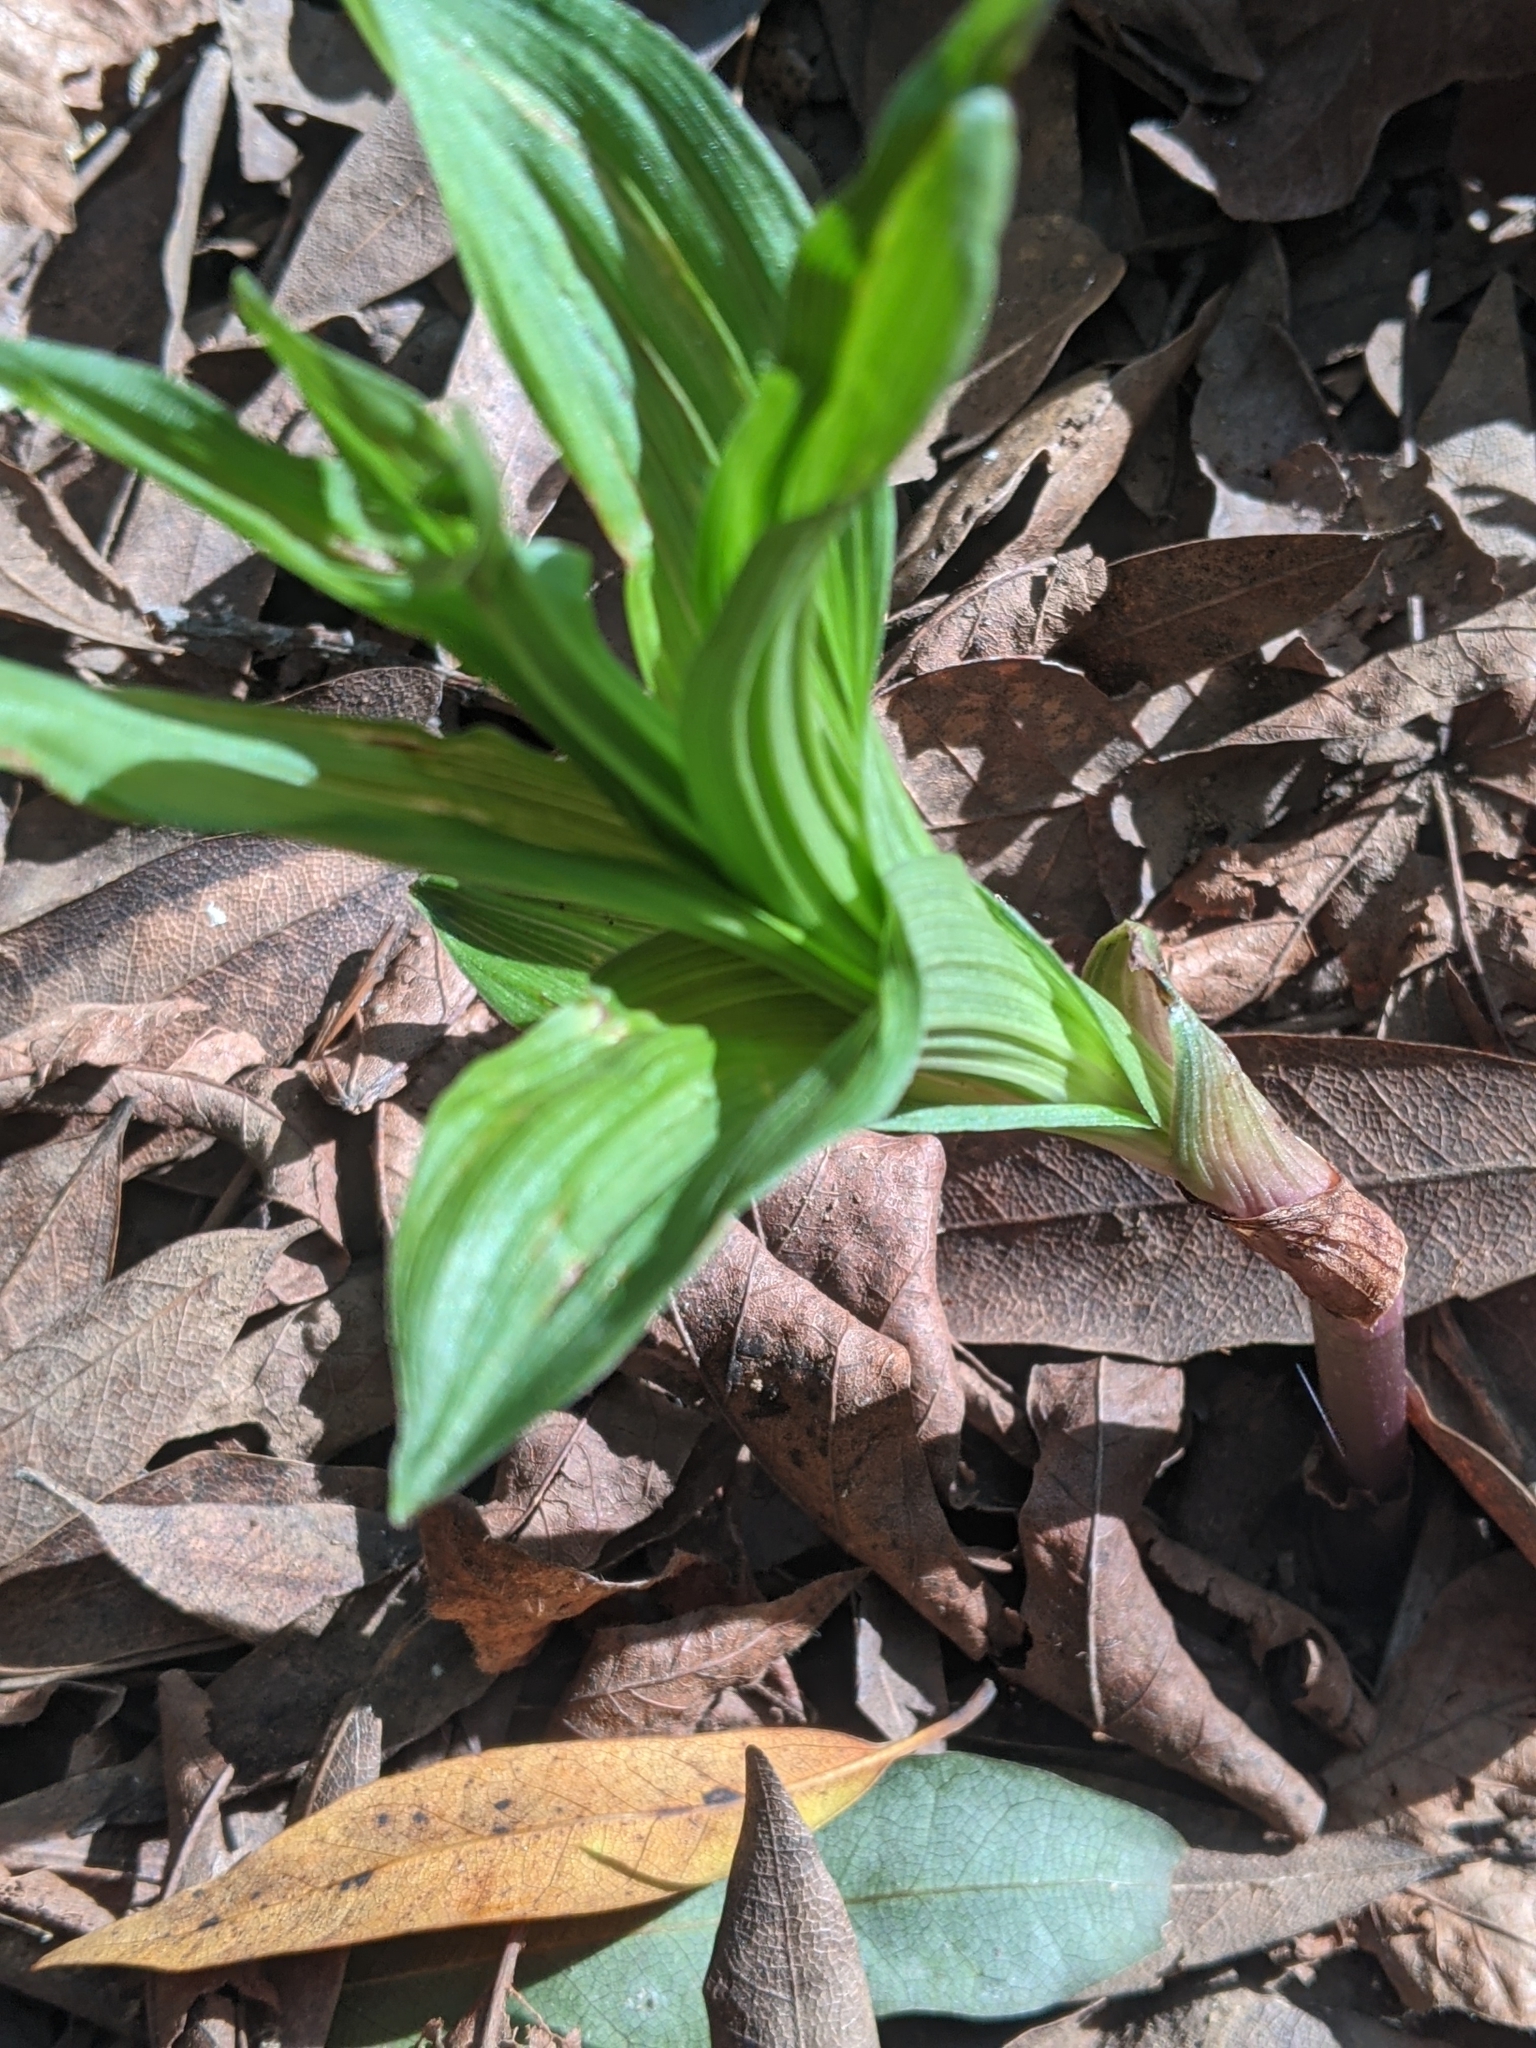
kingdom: Plantae
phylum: Tracheophyta
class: Liliopsida
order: Asparagales
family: Orchidaceae
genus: Epipactis
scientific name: Epipactis helleborine
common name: Broad-leaved helleborine
